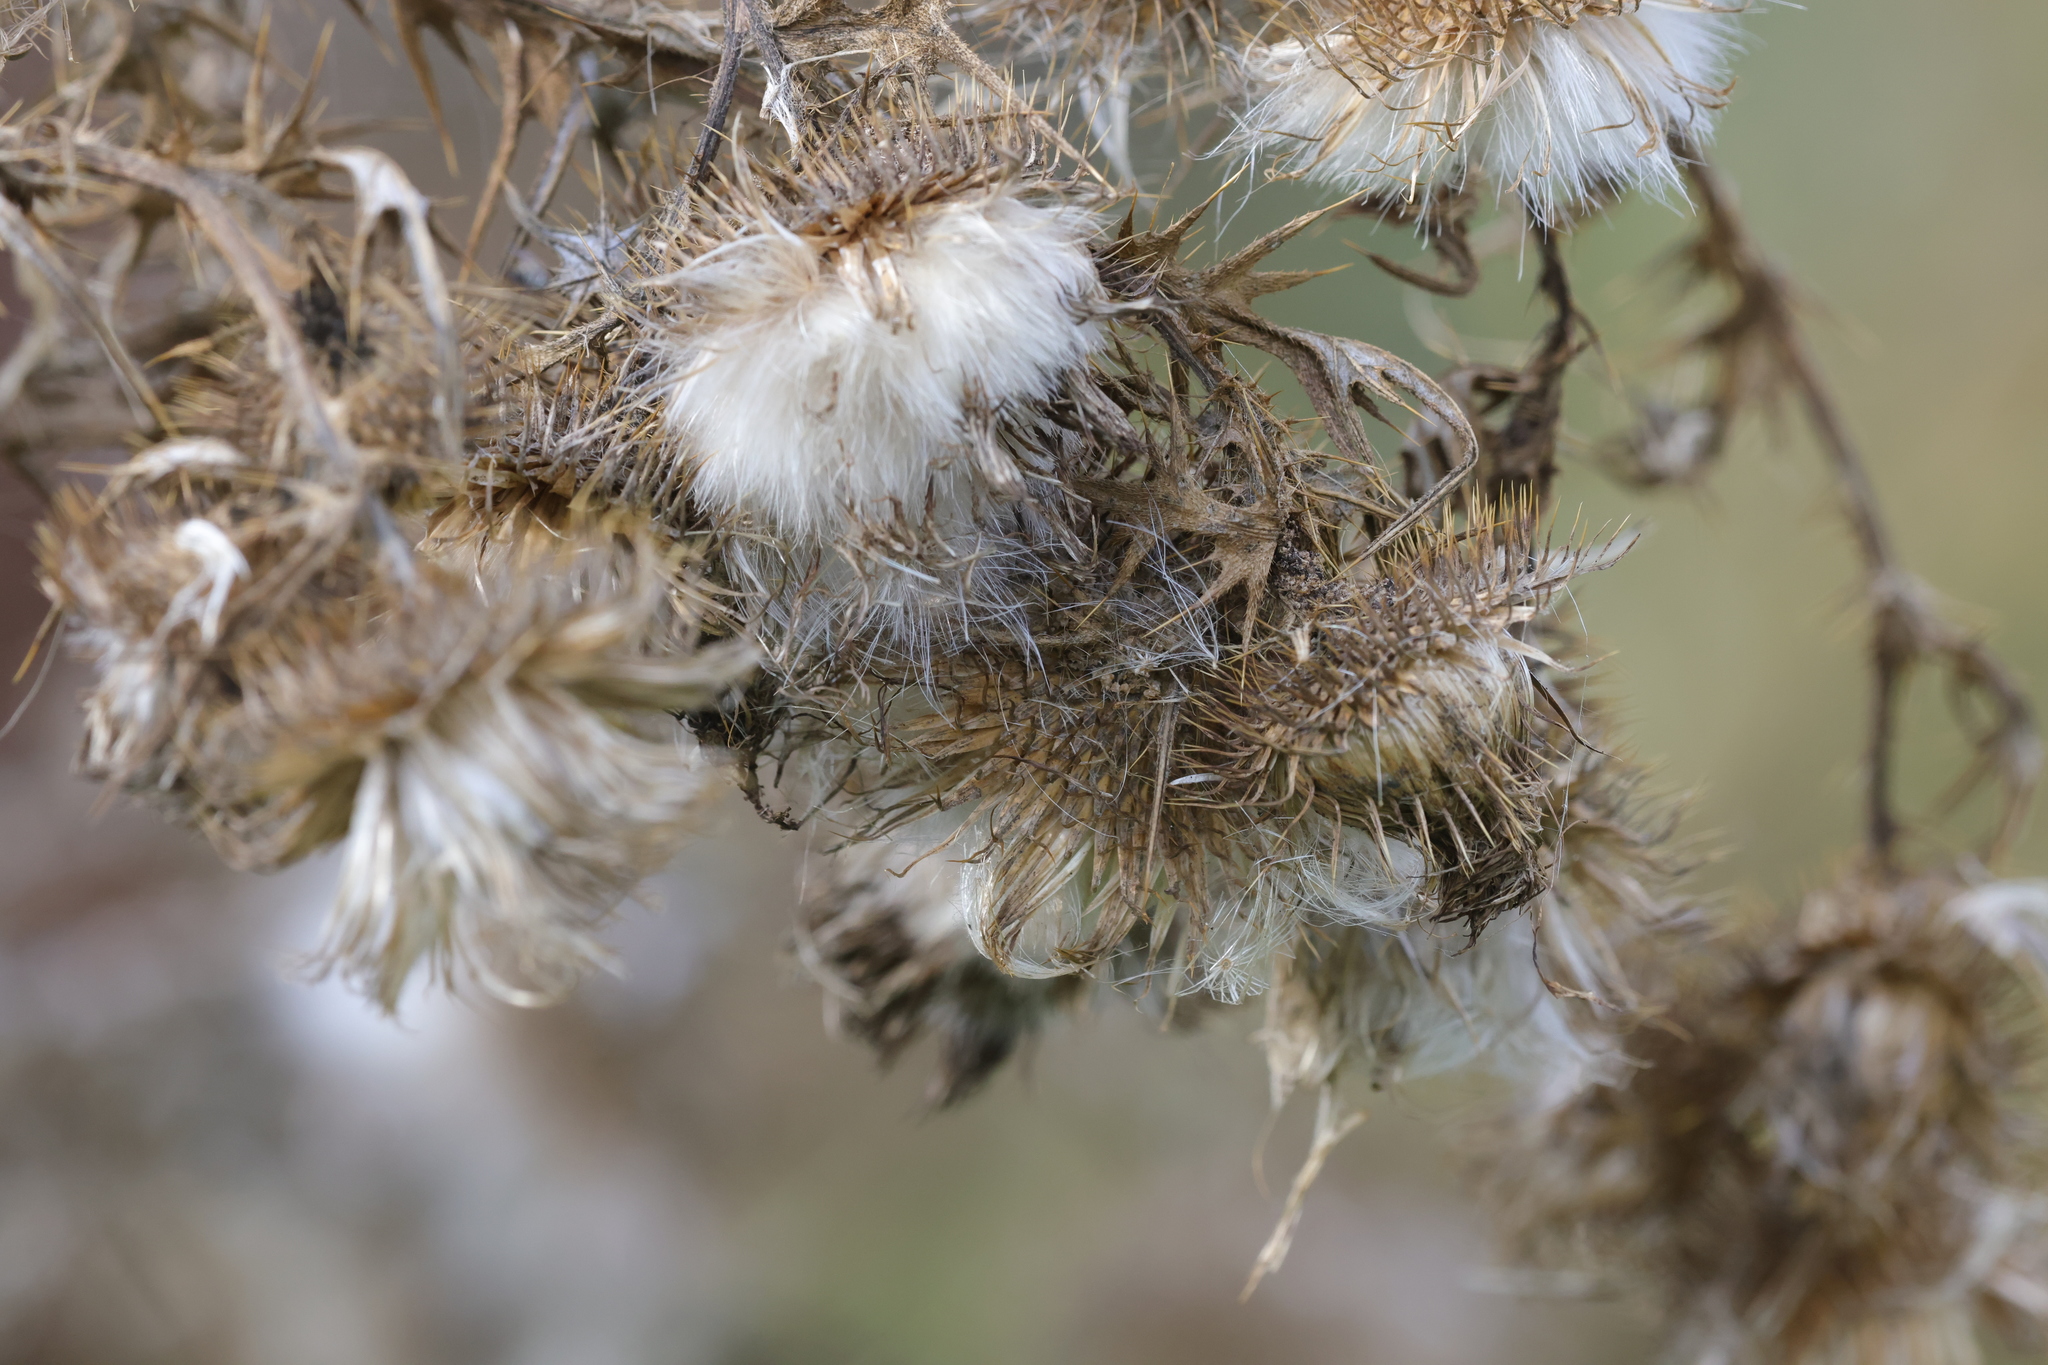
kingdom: Plantae
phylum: Tracheophyta
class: Magnoliopsida
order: Asterales
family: Asteraceae
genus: Cirsium
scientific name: Cirsium vulgare
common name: Bull thistle
